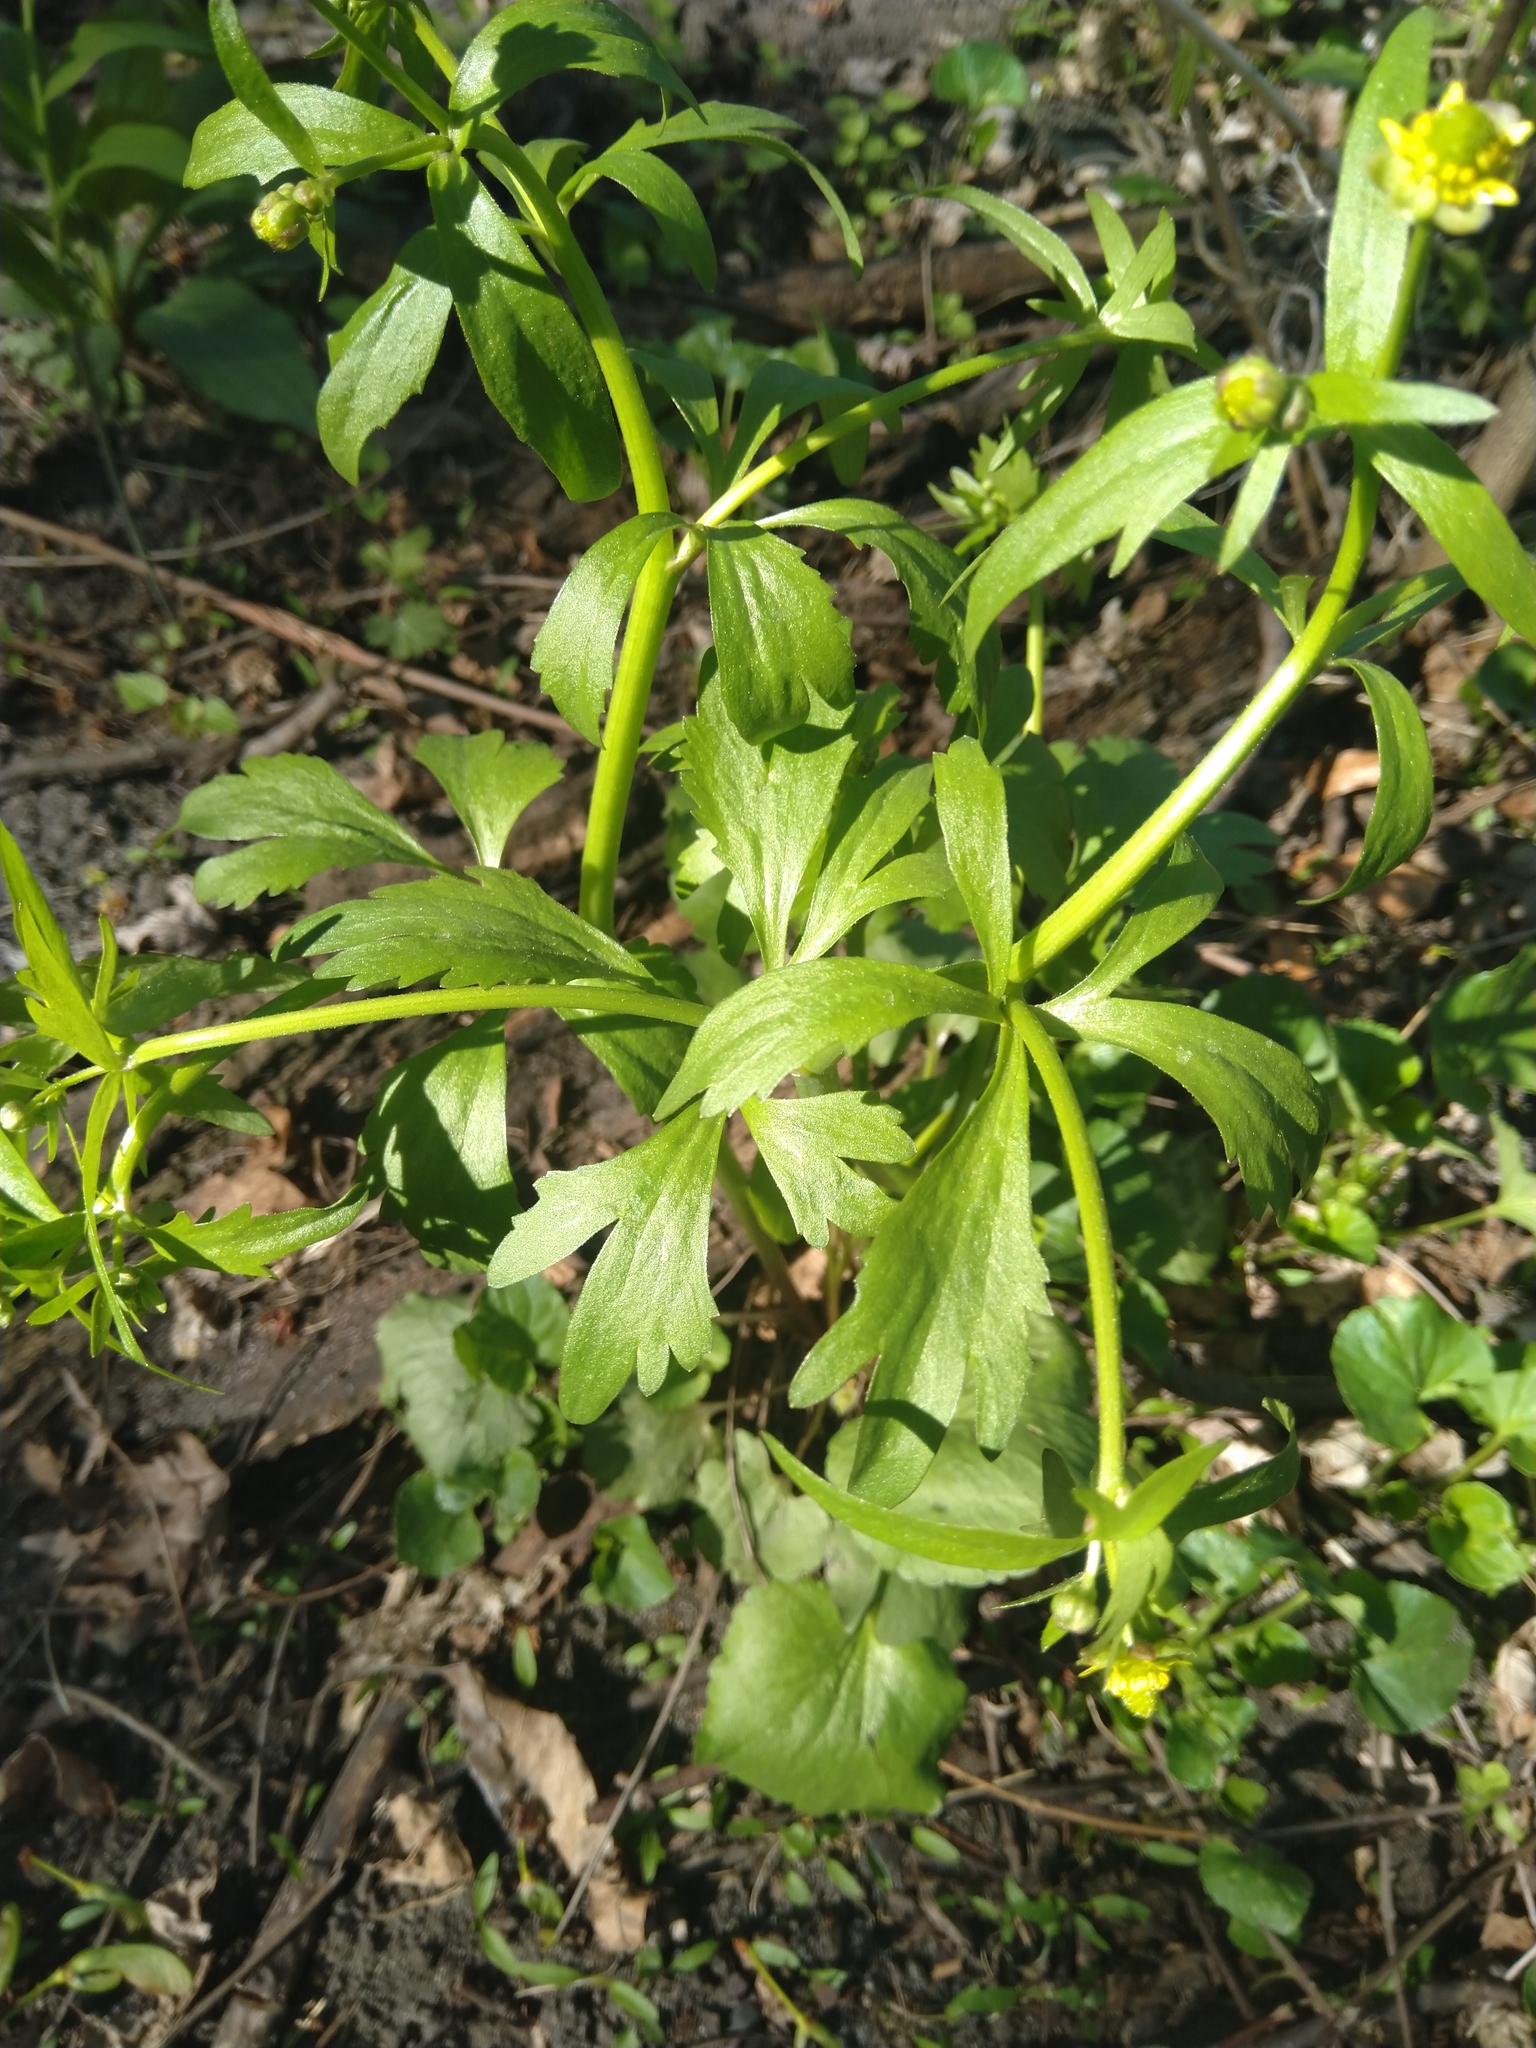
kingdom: Plantae
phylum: Tracheophyta
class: Magnoliopsida
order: Ranunculales
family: Ranunculaceae
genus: Ranunculus
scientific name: Ranunculus abortivus
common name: Early wood buttercup
